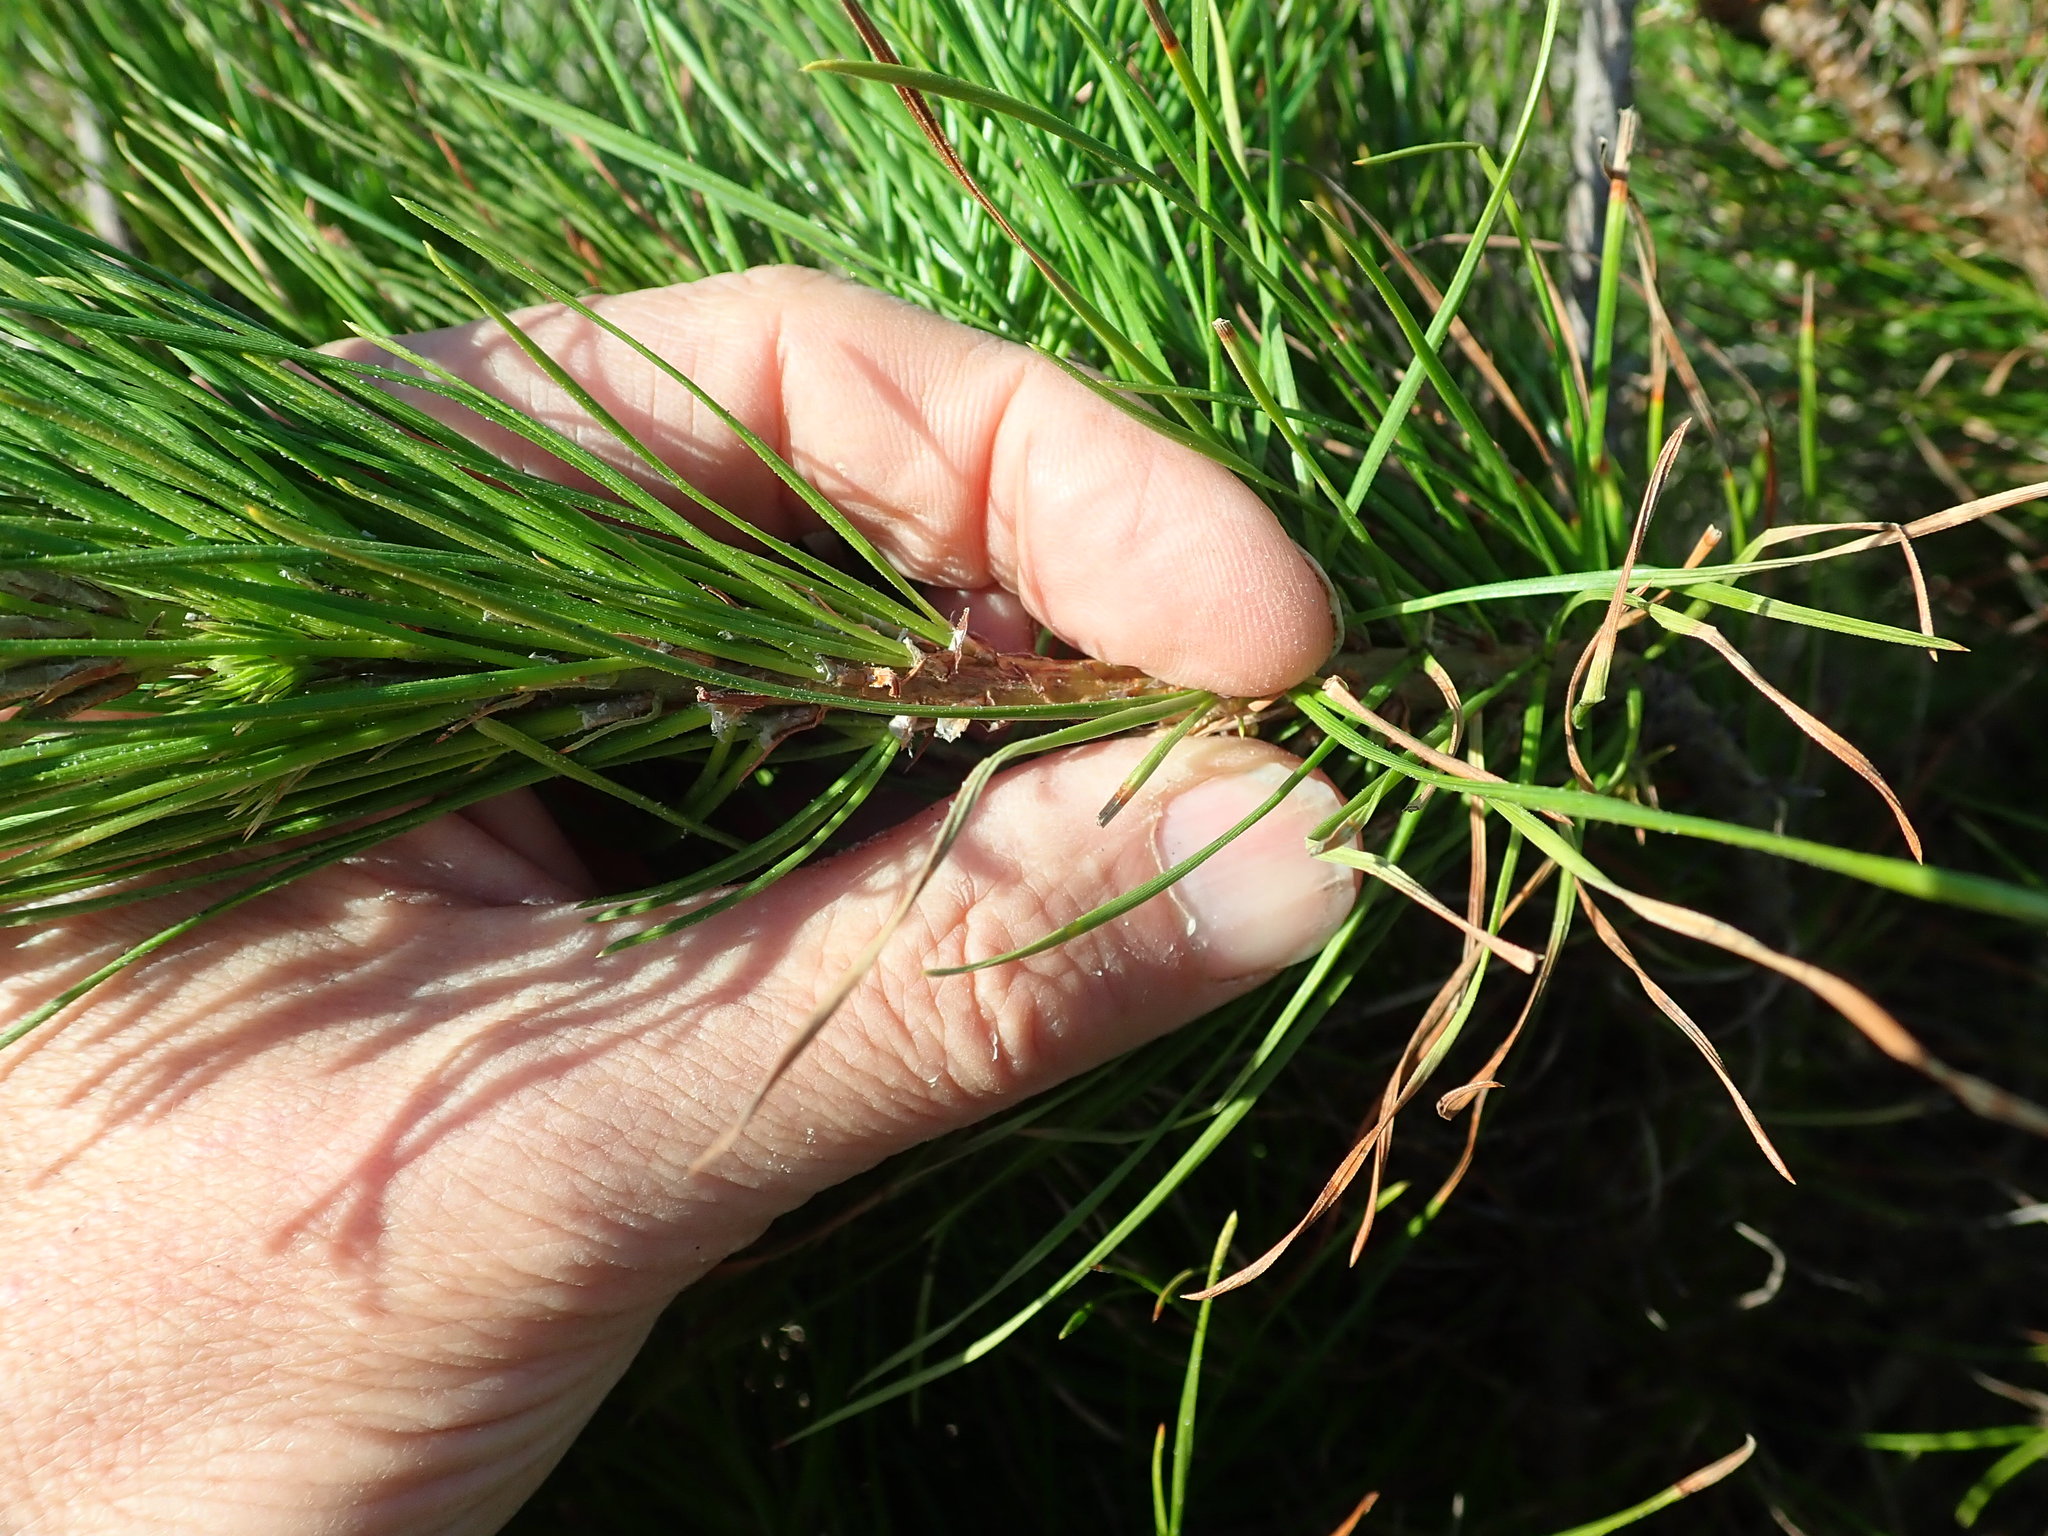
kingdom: Plantae
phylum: Tracheophyta
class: Pinopsida
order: Pinales
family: Pinaceae
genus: Pinus
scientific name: Pinus radiata
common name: Monterey pine
